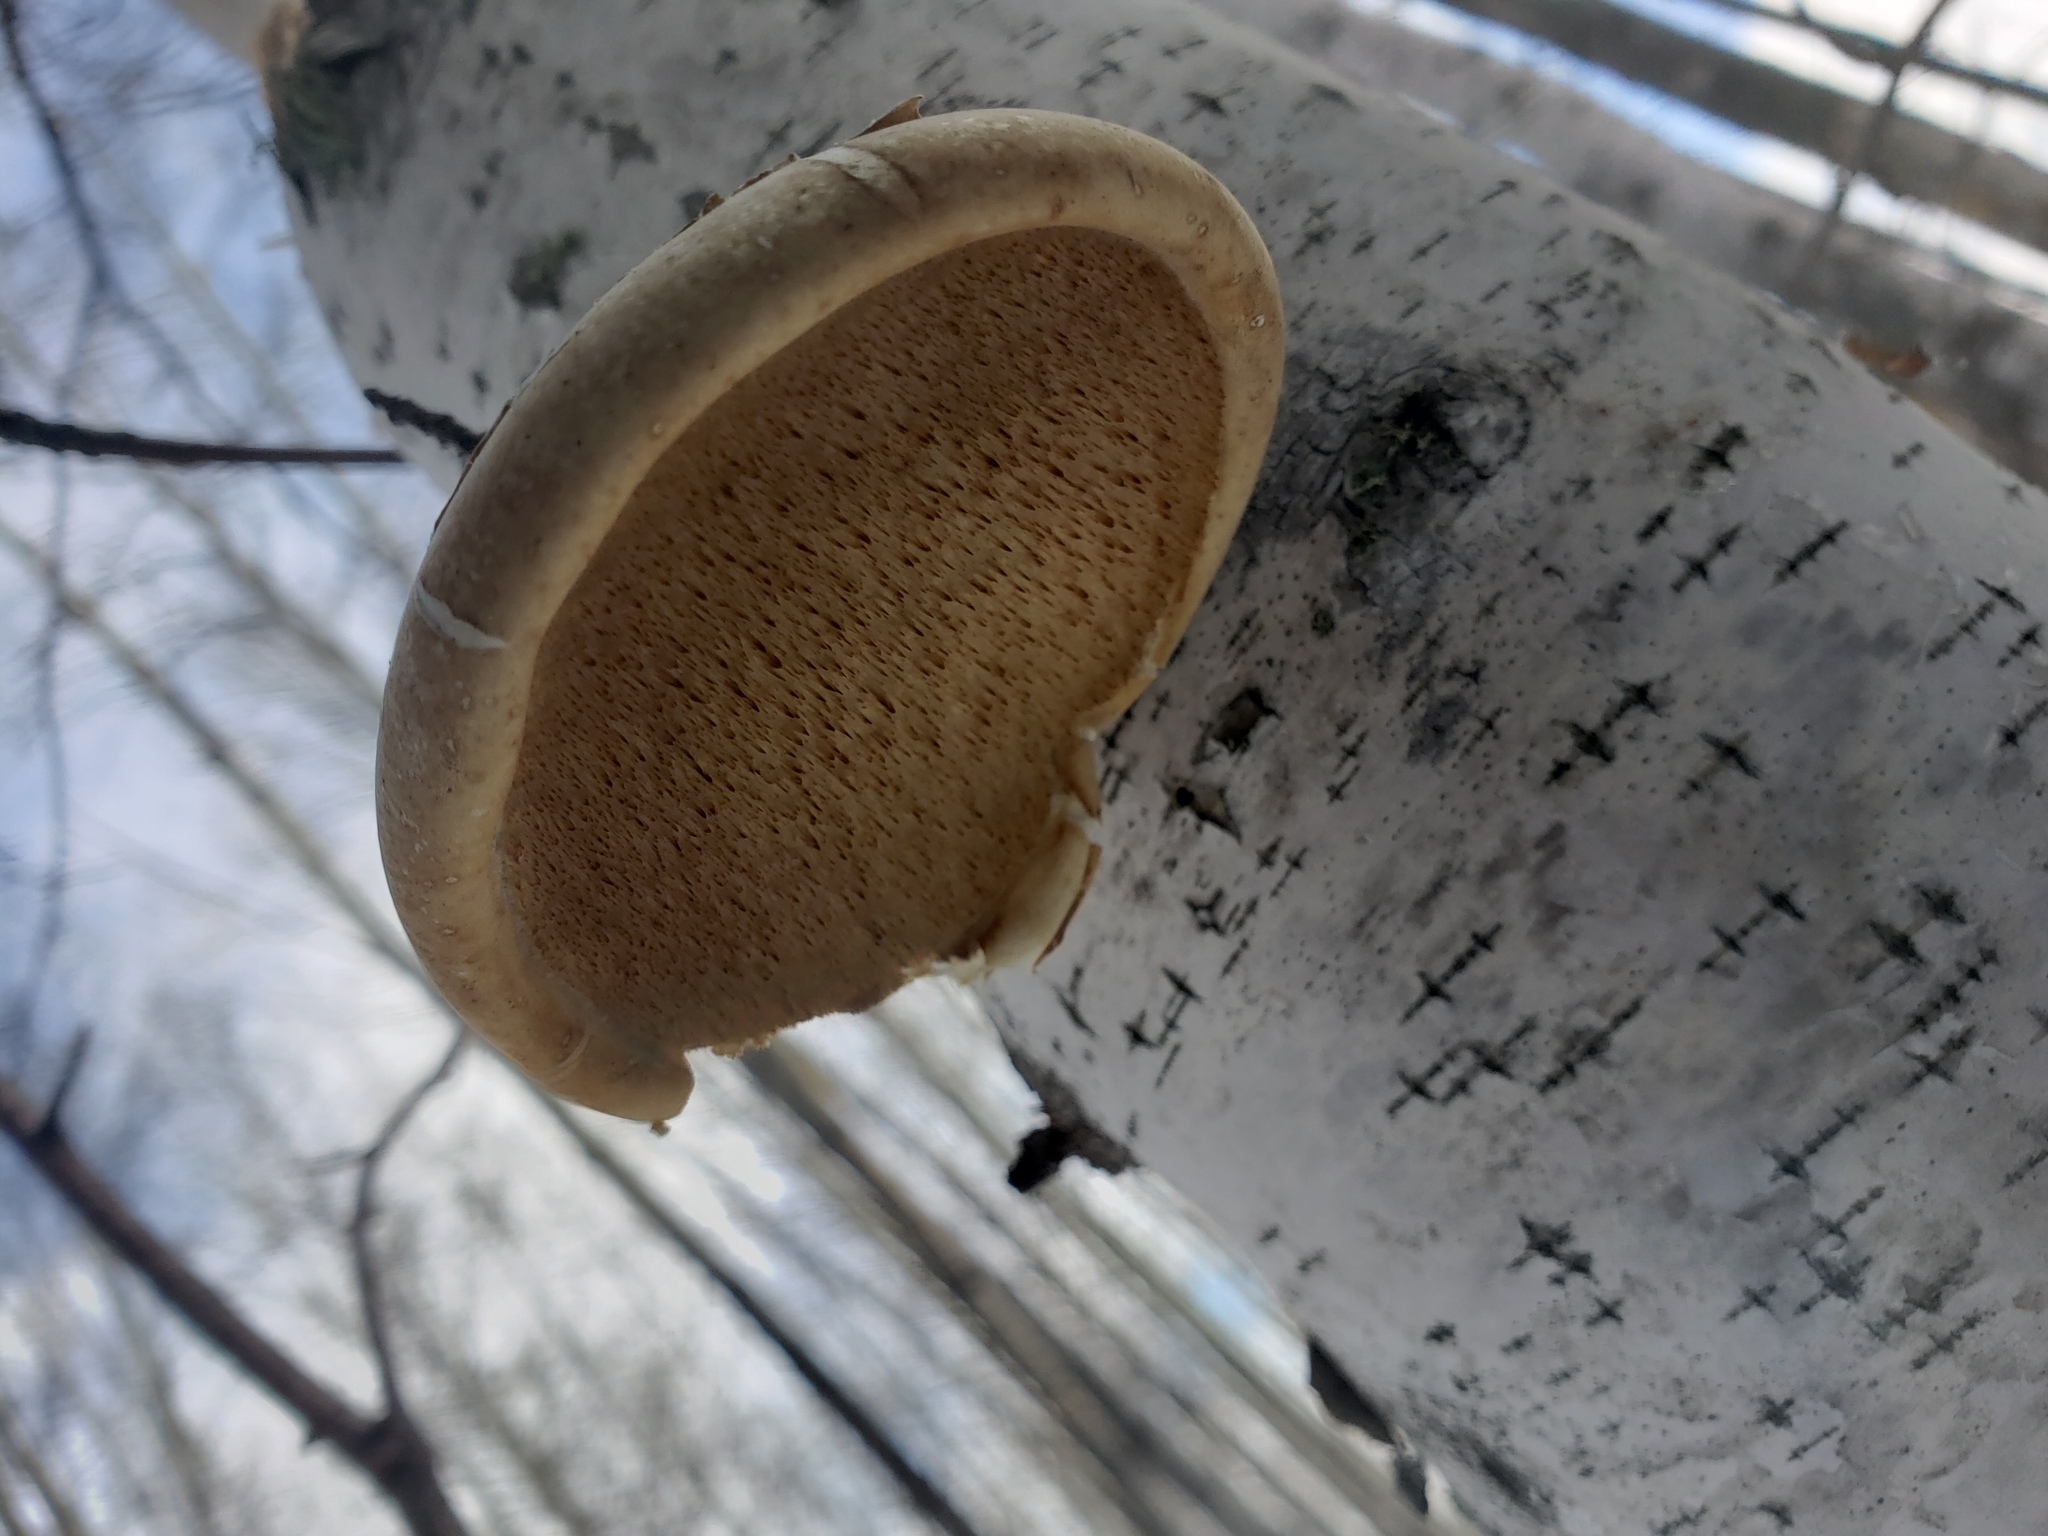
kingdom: Fungi
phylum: Basidiomycota
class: Agaricomycetes
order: Polyporales
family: Fomitopsidaceae
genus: Fomitopsis
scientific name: Fomitopsis betulina
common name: Birch polypore
